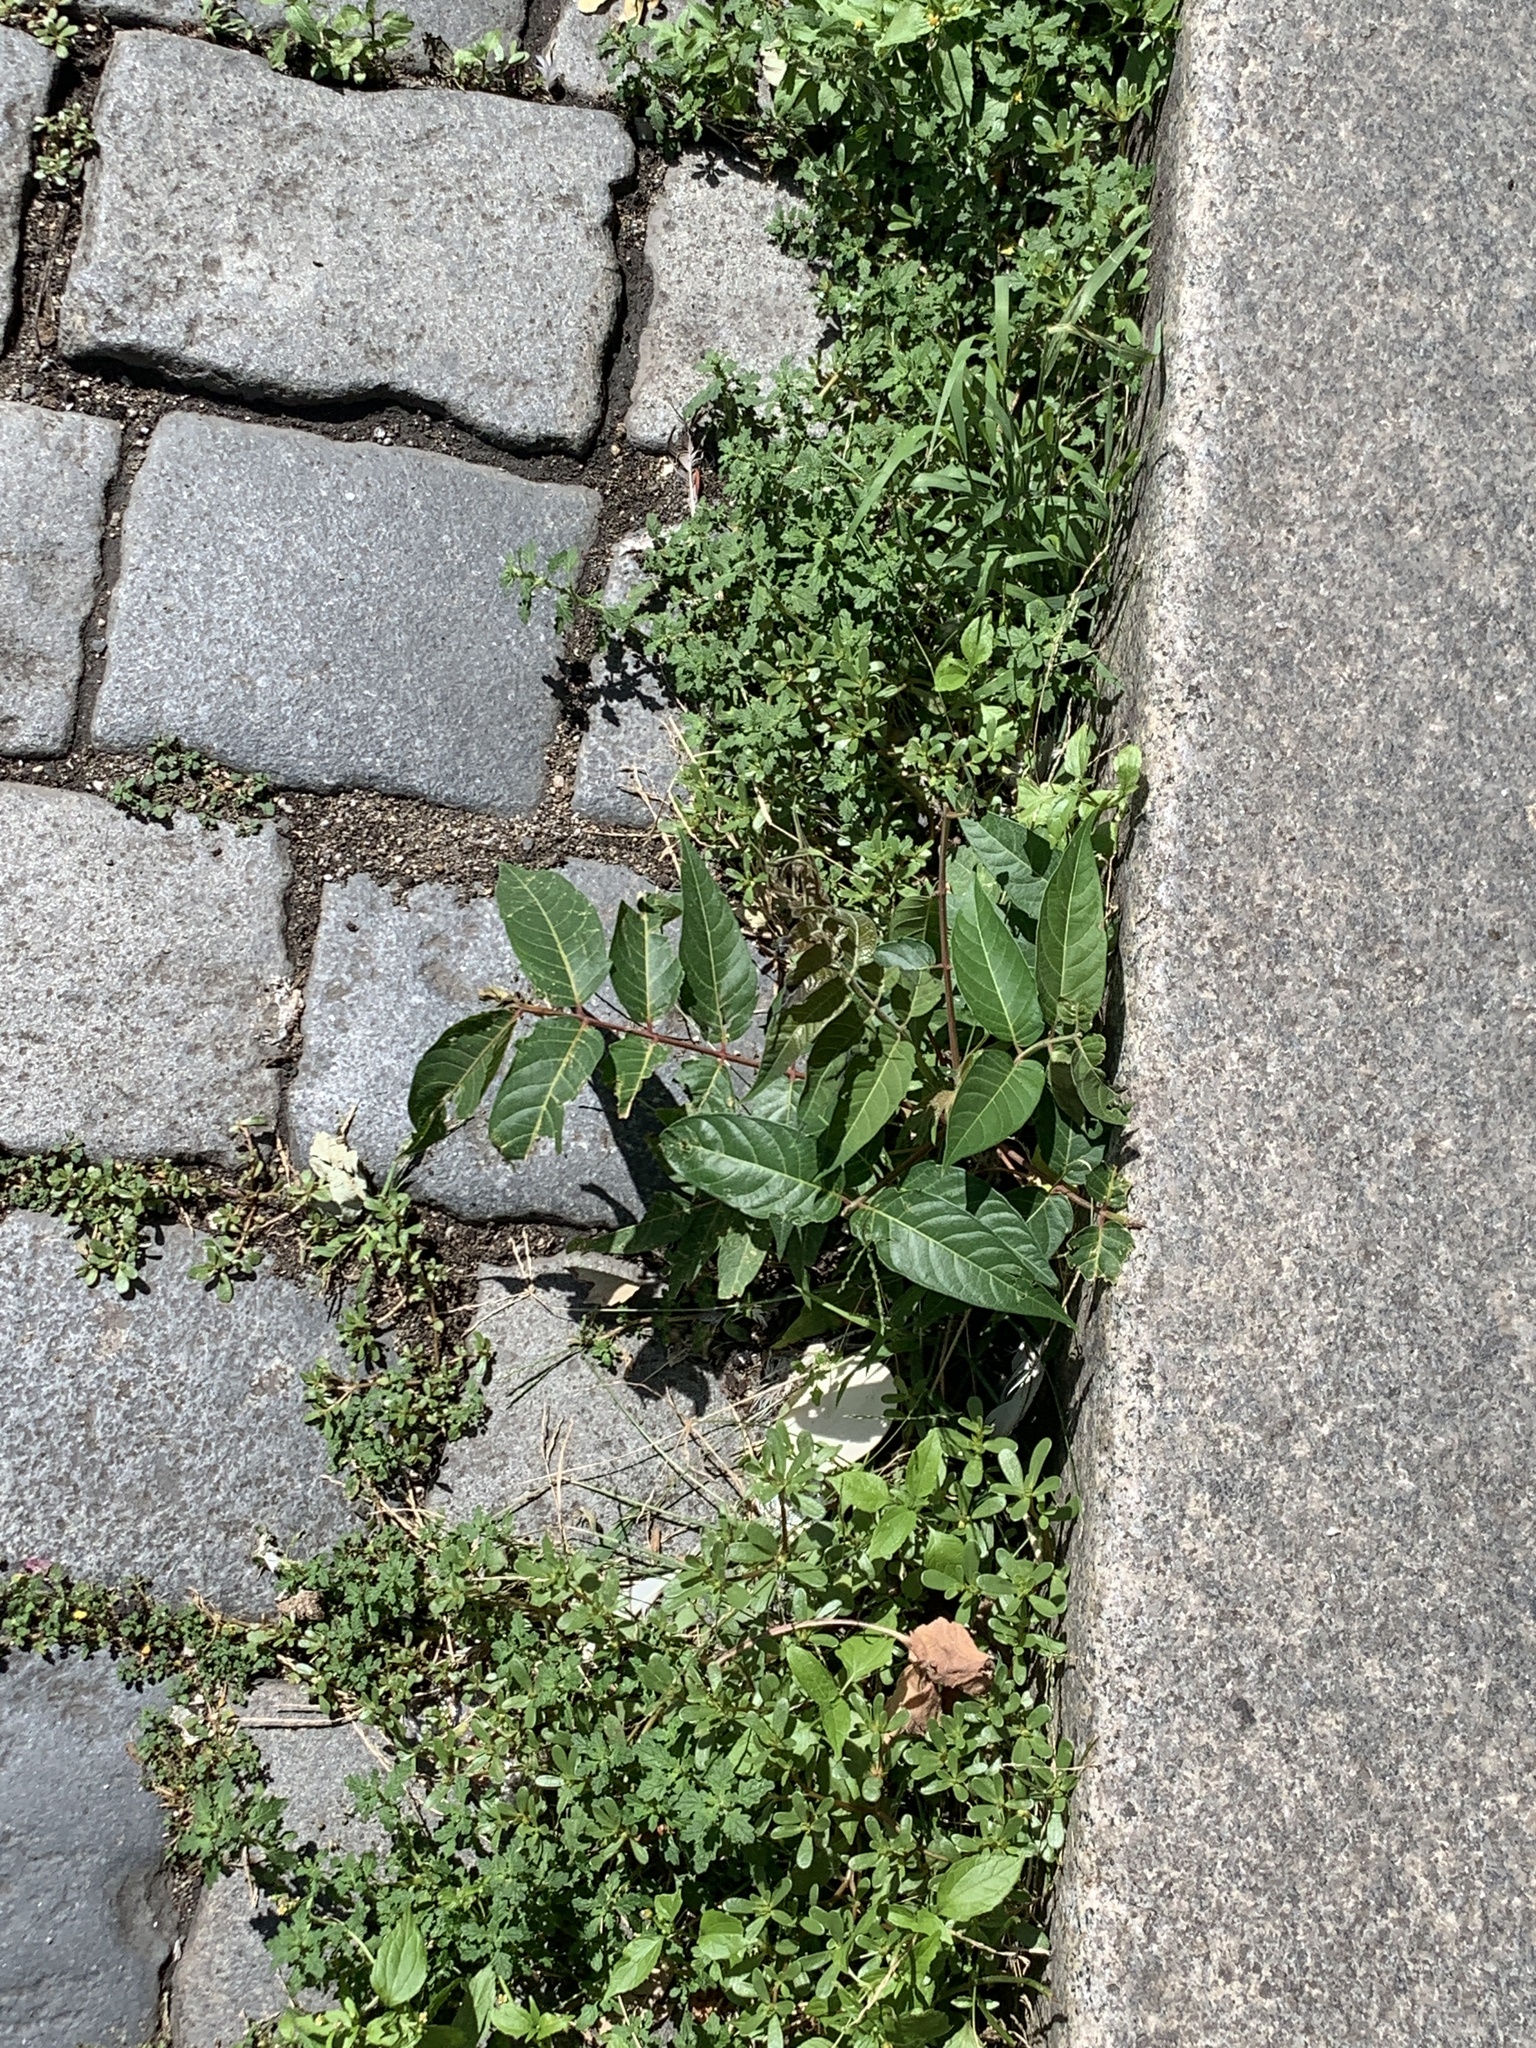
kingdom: Plantae
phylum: Tracheophyta
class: Magnoliopsida
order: Sapindales
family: Simaroubaceae
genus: Ailanthus
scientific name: Ailanthus altissima
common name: Tree-of-heaven
